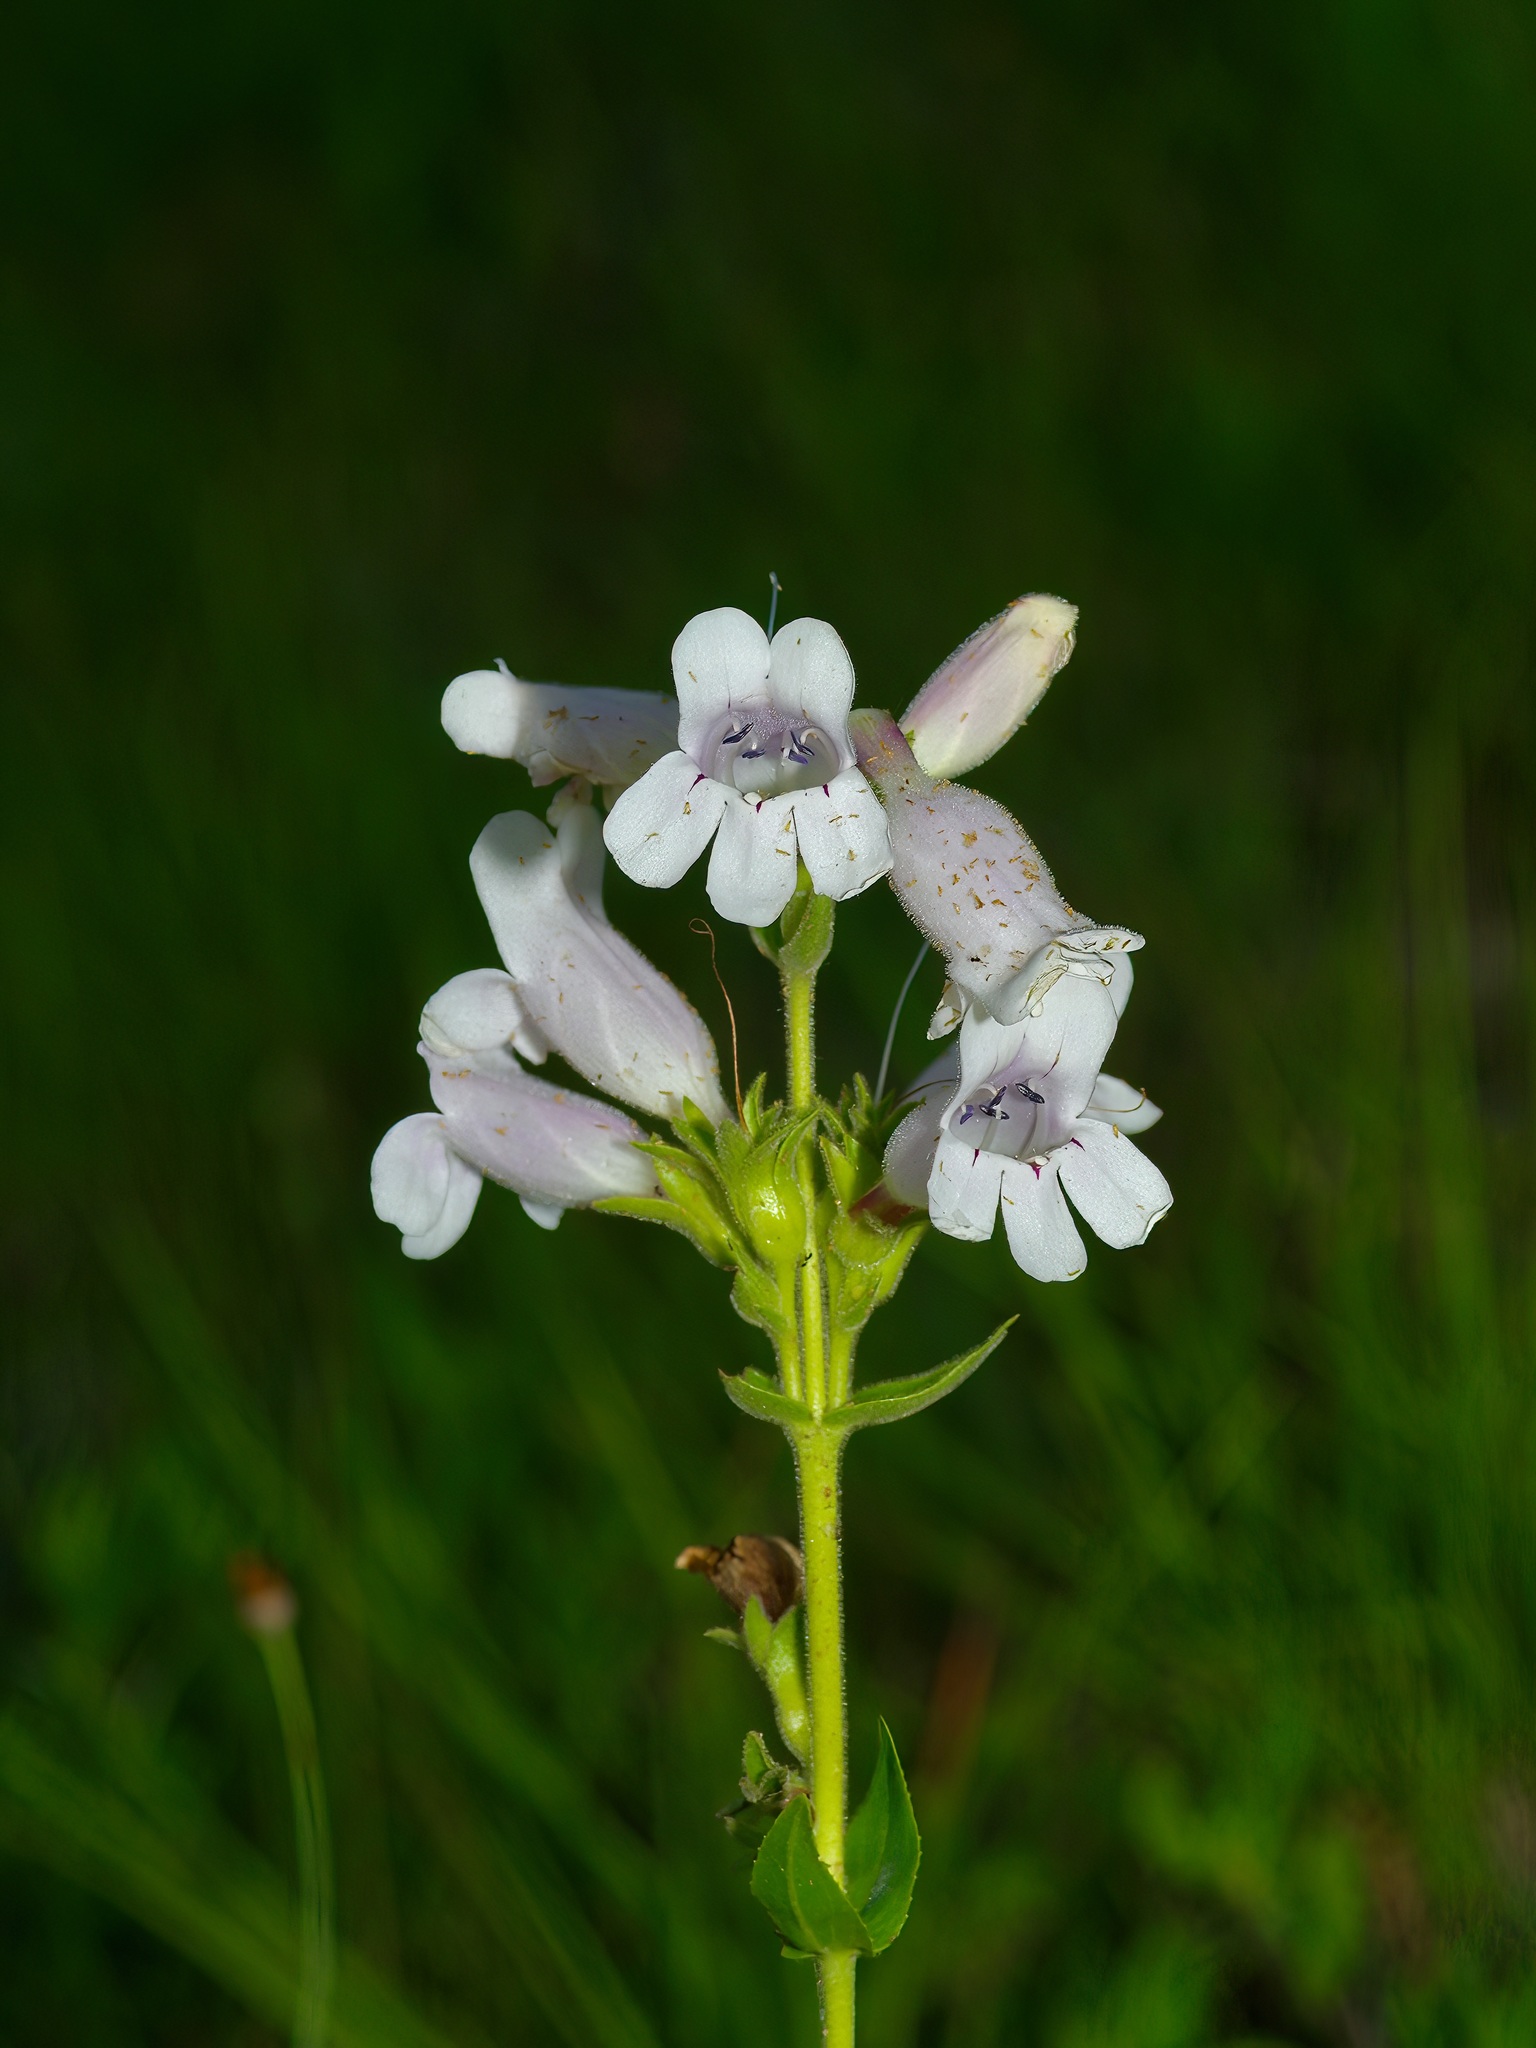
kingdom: Plantae
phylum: Tracheophyta
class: Magnoliopsida
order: Lamiales
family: Plantaginaceae
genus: Penstemon
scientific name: Penstemon cobaea
